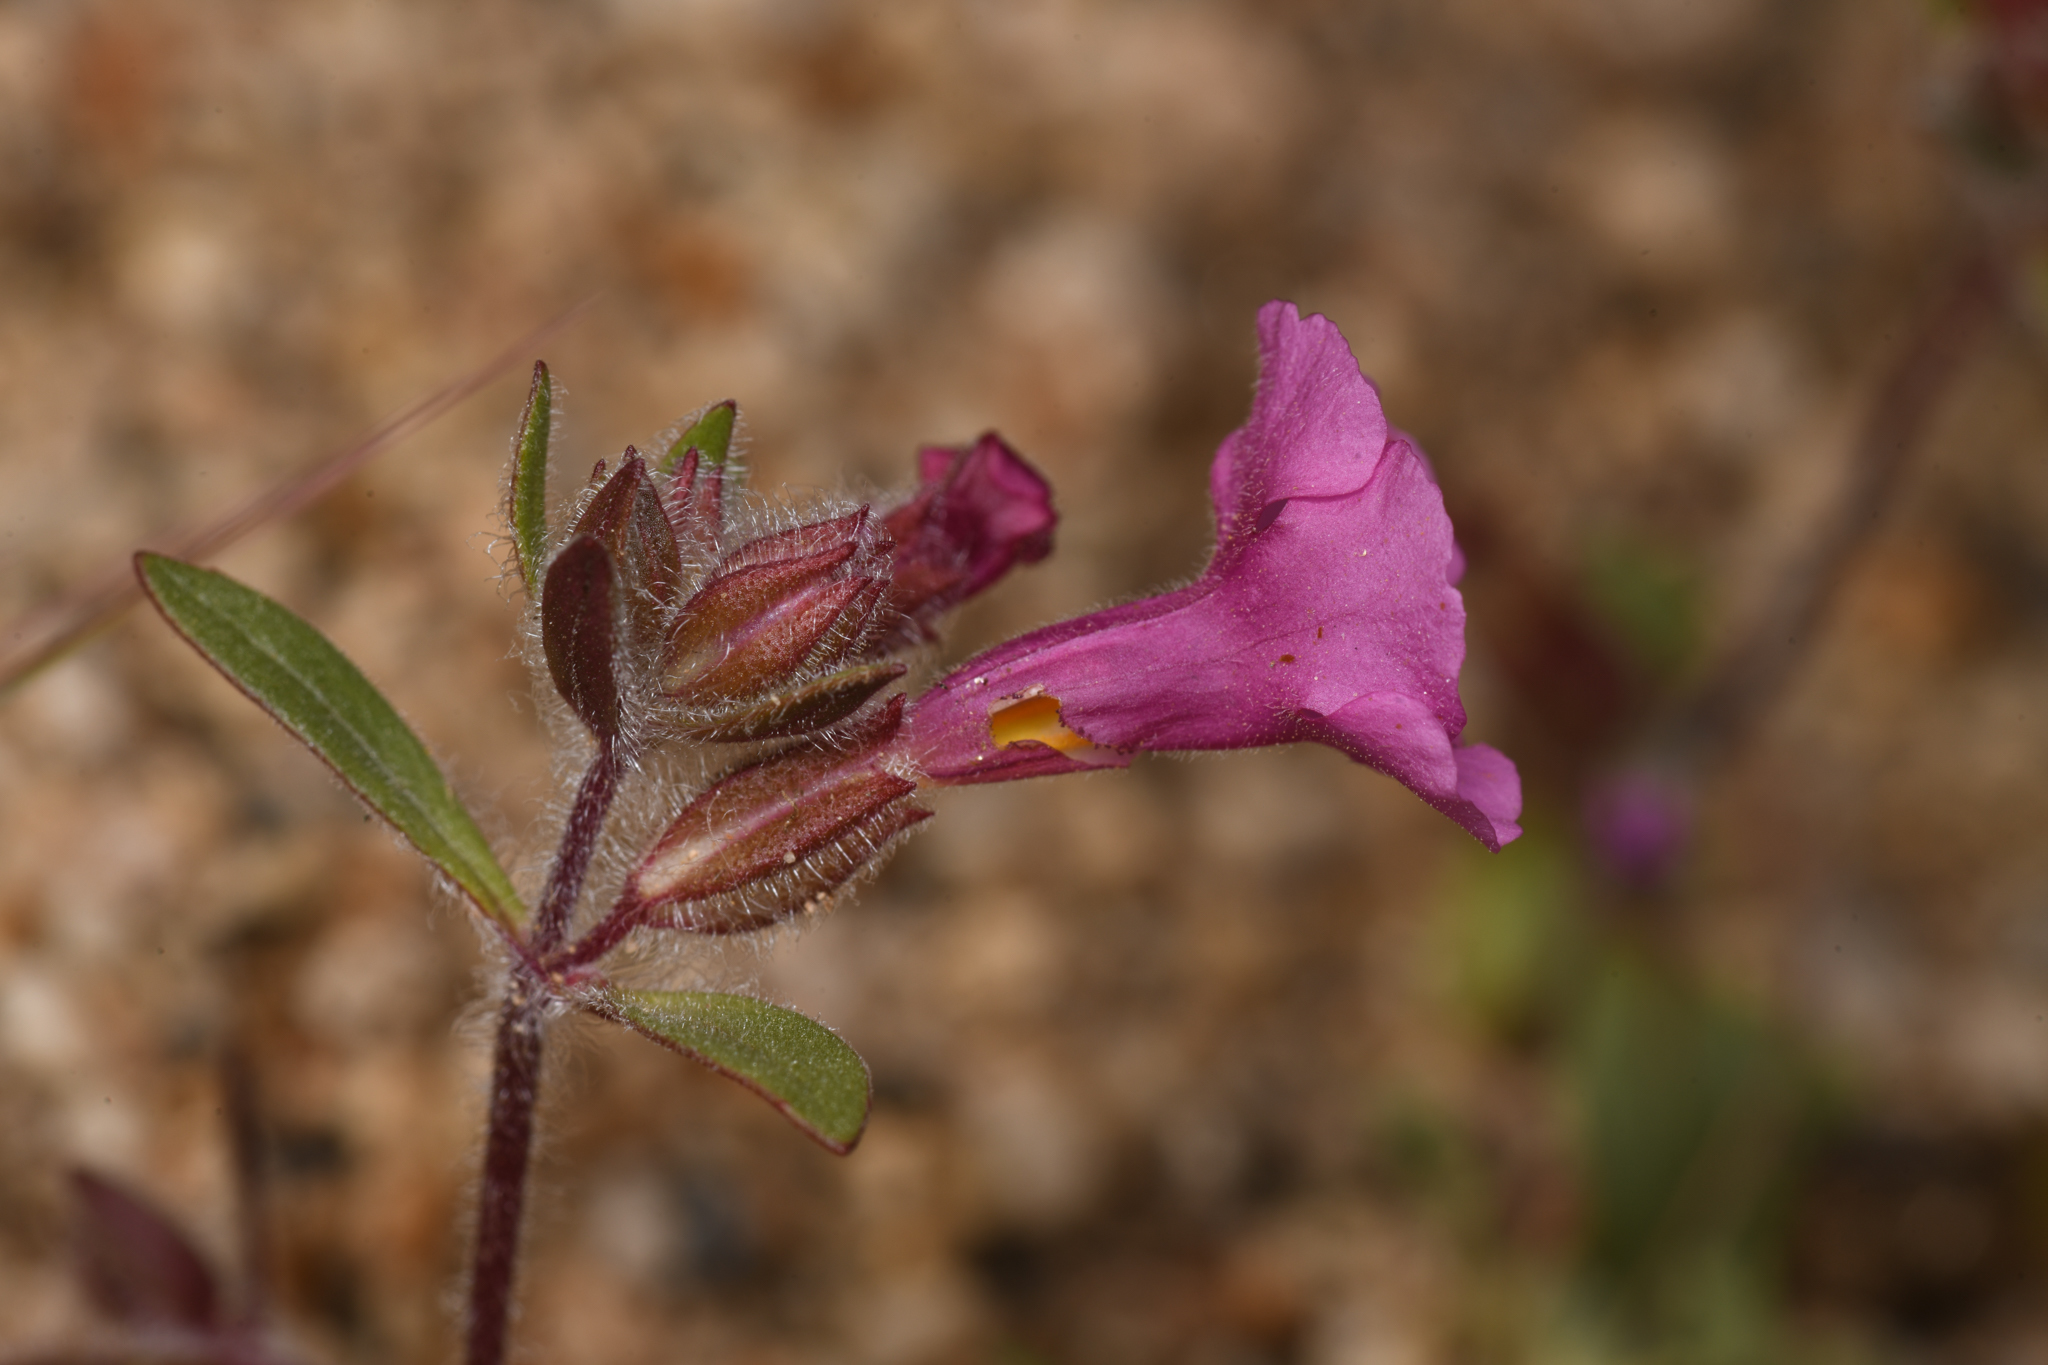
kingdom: Plantae
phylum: Tracheophyta
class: Magnoliopsida
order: Lamiales
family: Phrymaceae
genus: Diplacus
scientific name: Diplacus fremontii
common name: Fremont's monkey-flower
